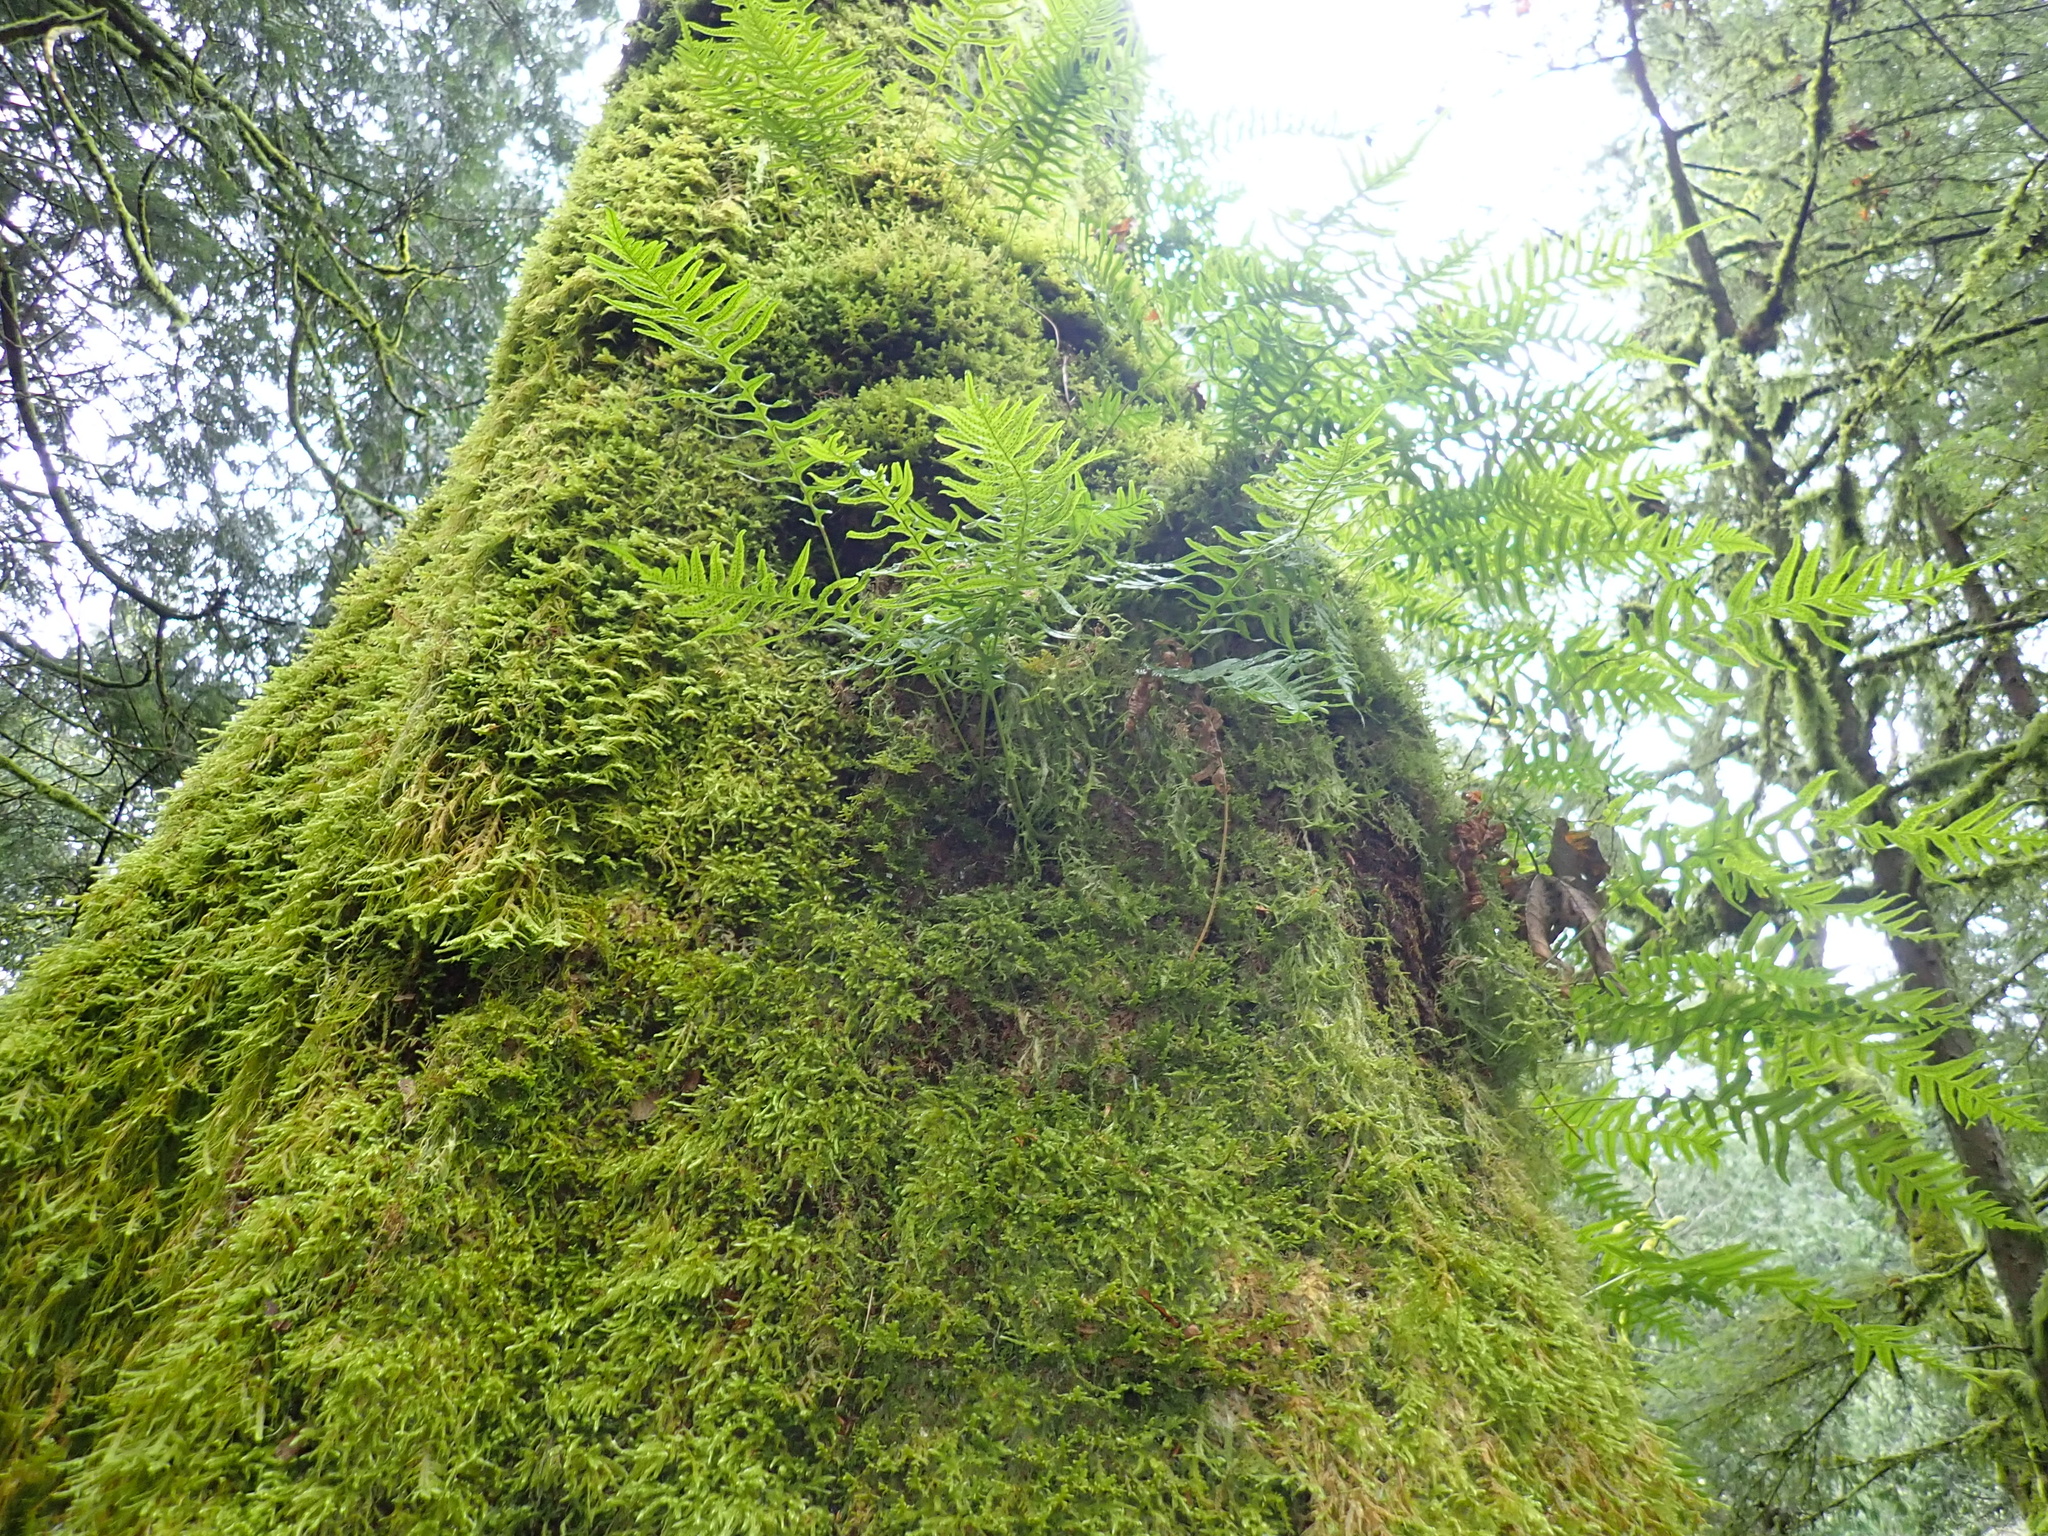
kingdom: Plantae
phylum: Tracheophyta
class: Polypodiopsida
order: Polypodiales
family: Polypodiaceae
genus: Polypodium
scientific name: Polypodium glycyrrhiza
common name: Licorice fern
